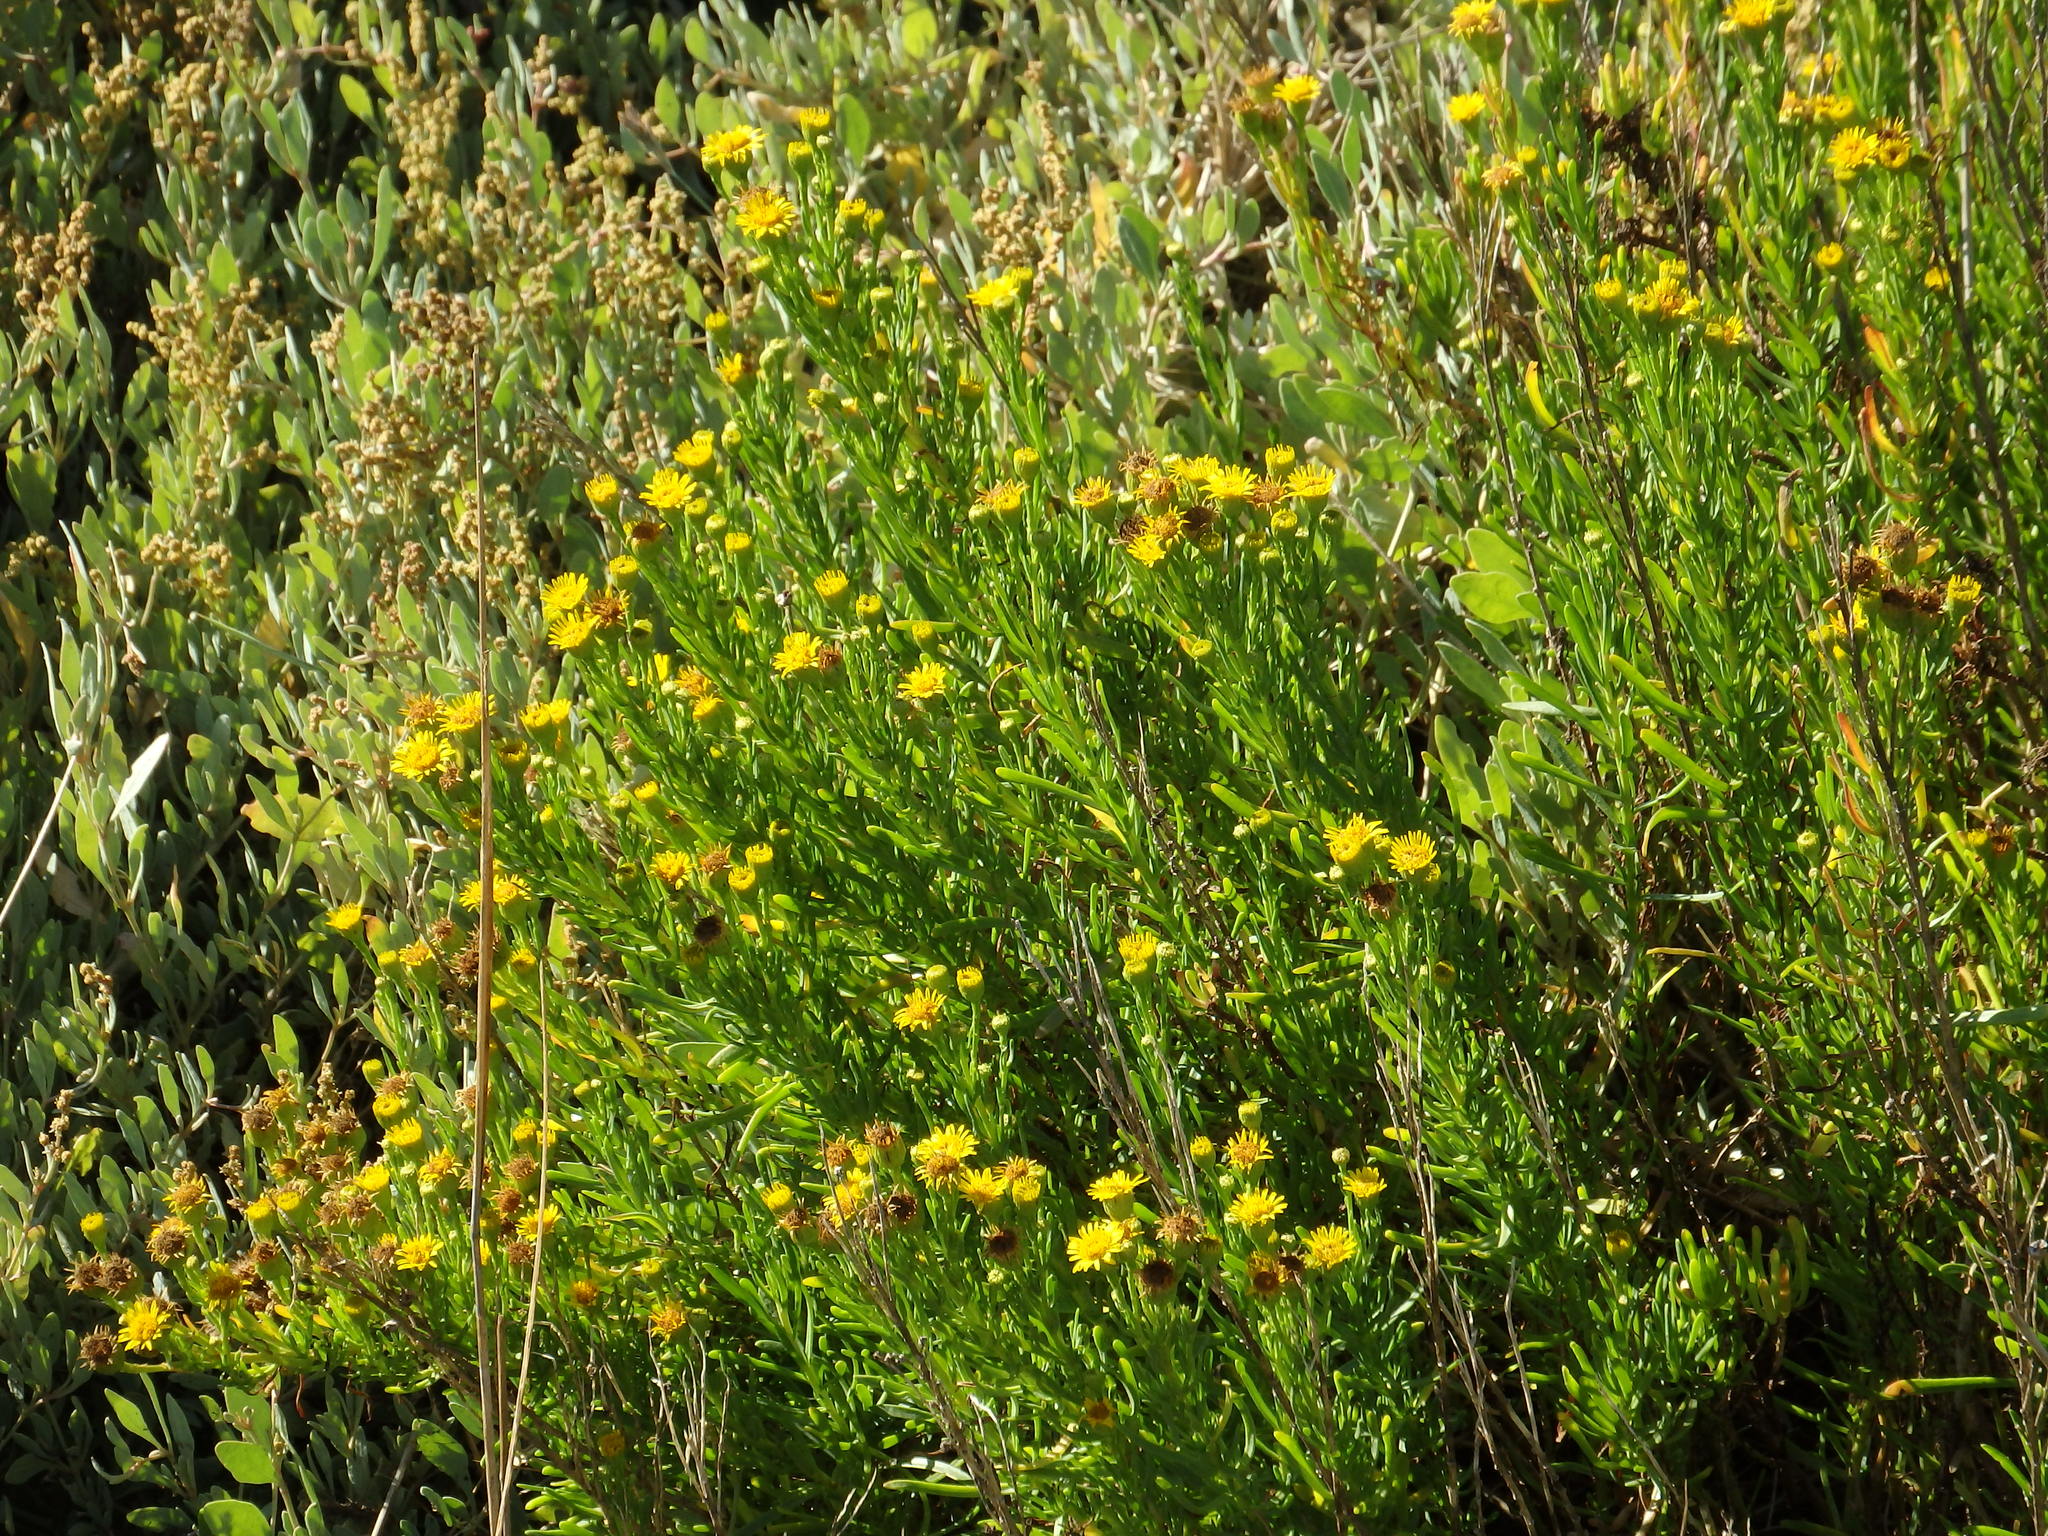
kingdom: Plantae
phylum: Tracheophyta
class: Magnoliopsida
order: Asterales
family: Asteraceae
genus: Limbarda
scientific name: Limbarda crithmoides
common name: Golden samphire
